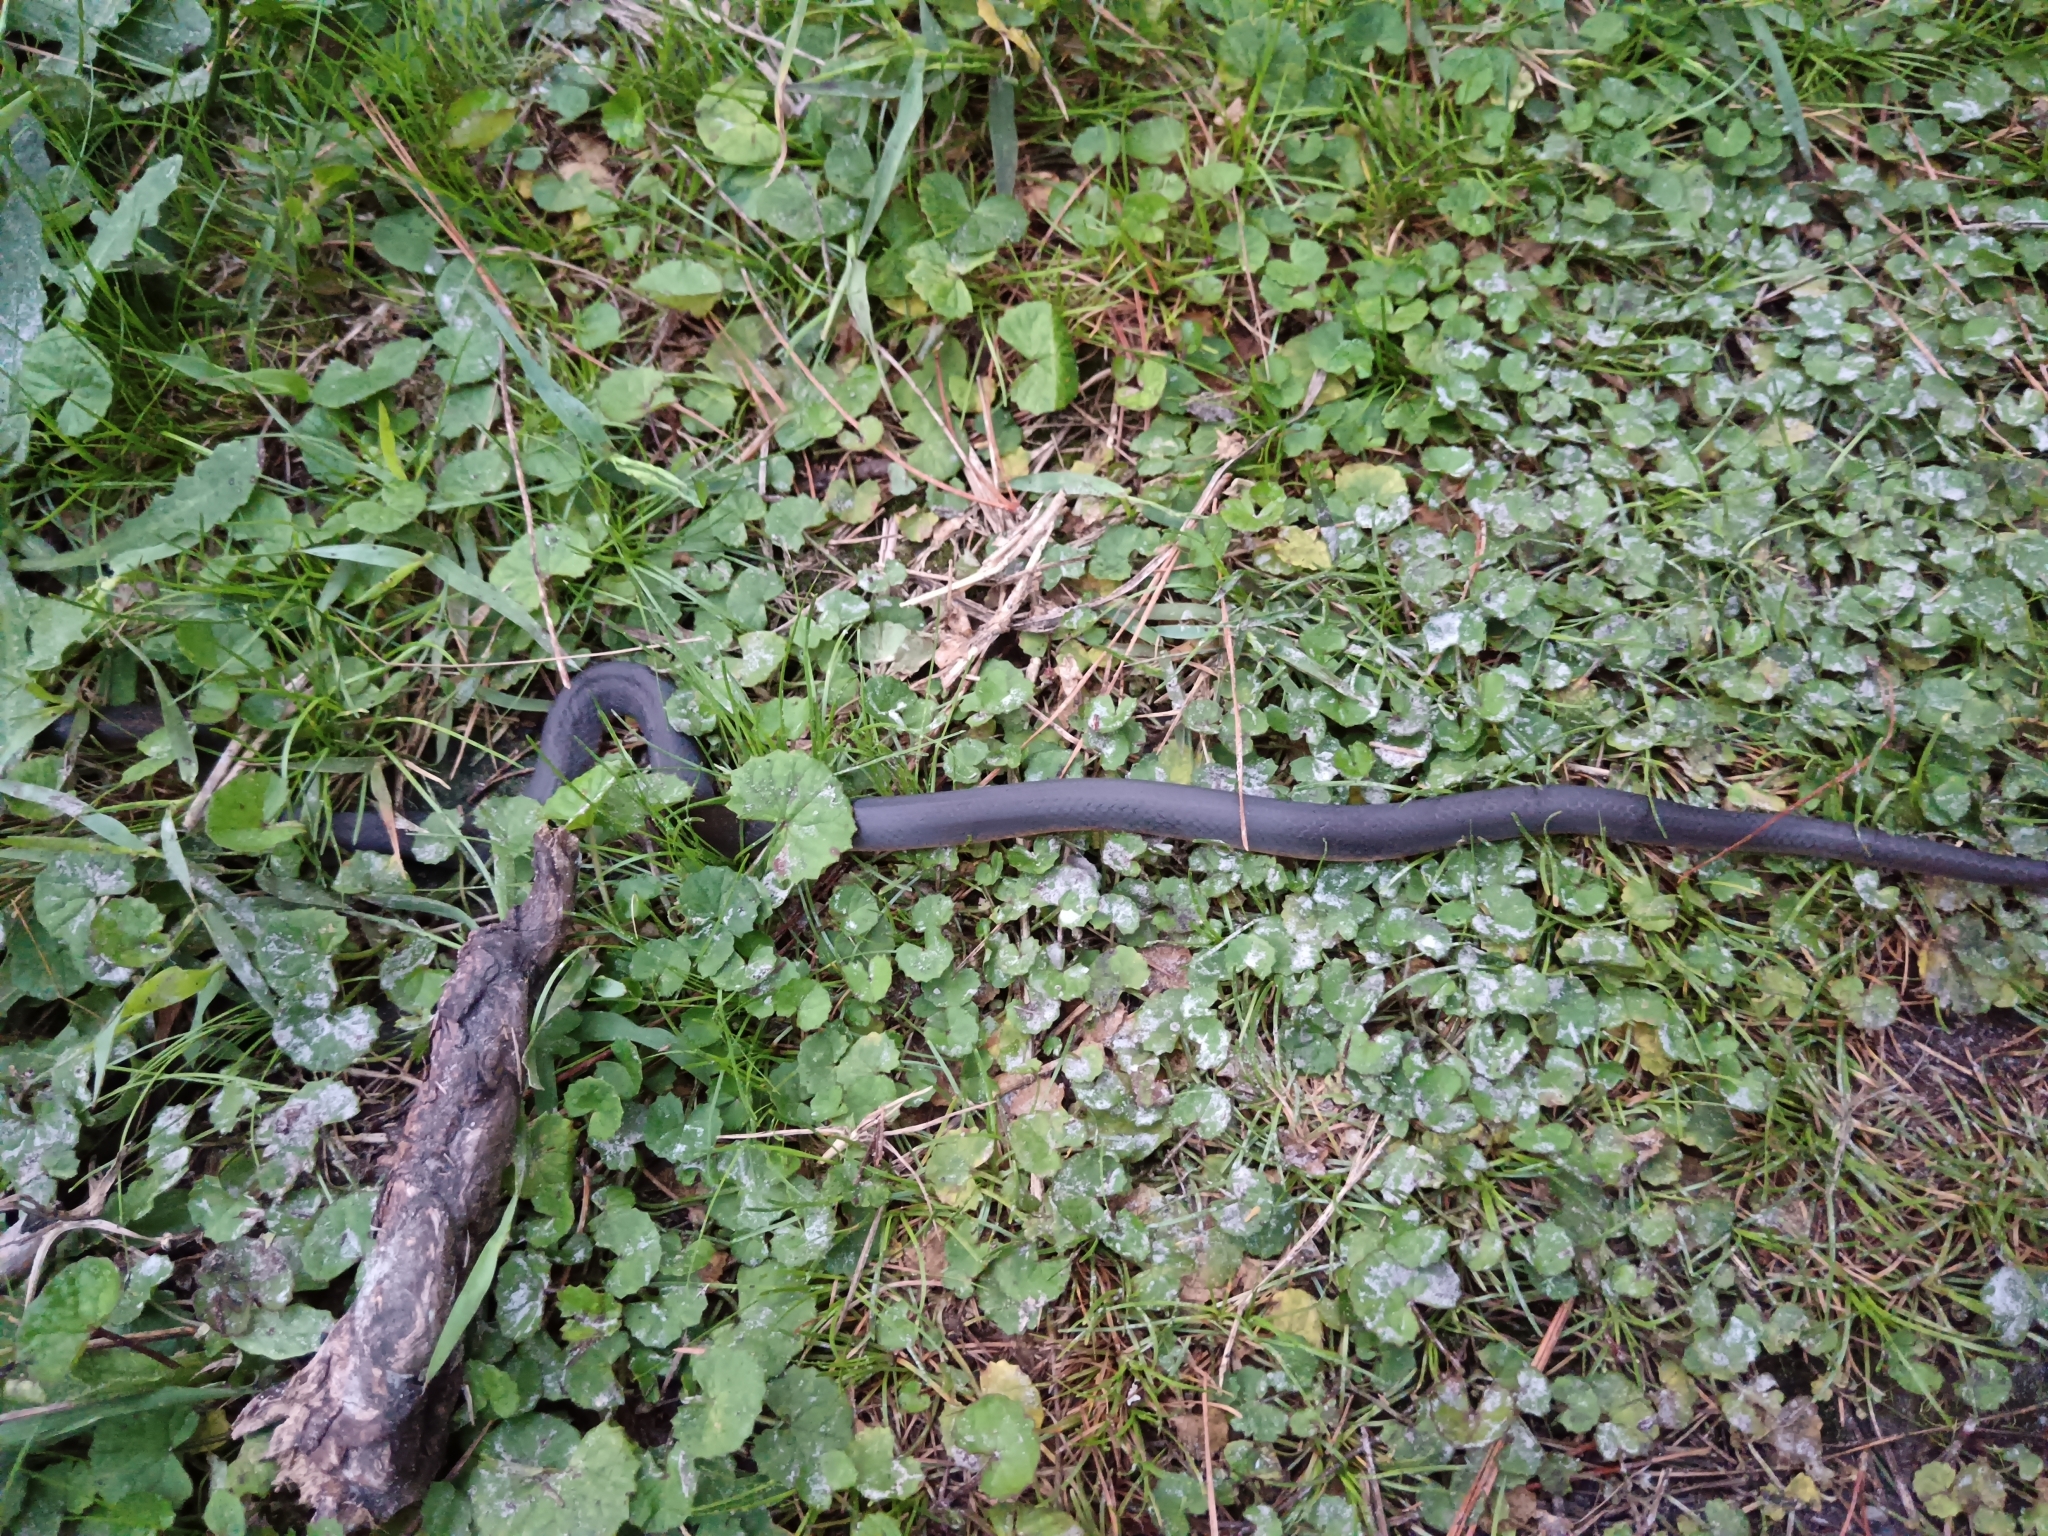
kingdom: Animalia
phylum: Chordata
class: Squamata
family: Lamprophiidae
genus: Lycodonomorphus
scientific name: Lycodonomorphus rufulus
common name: Brown water snake
